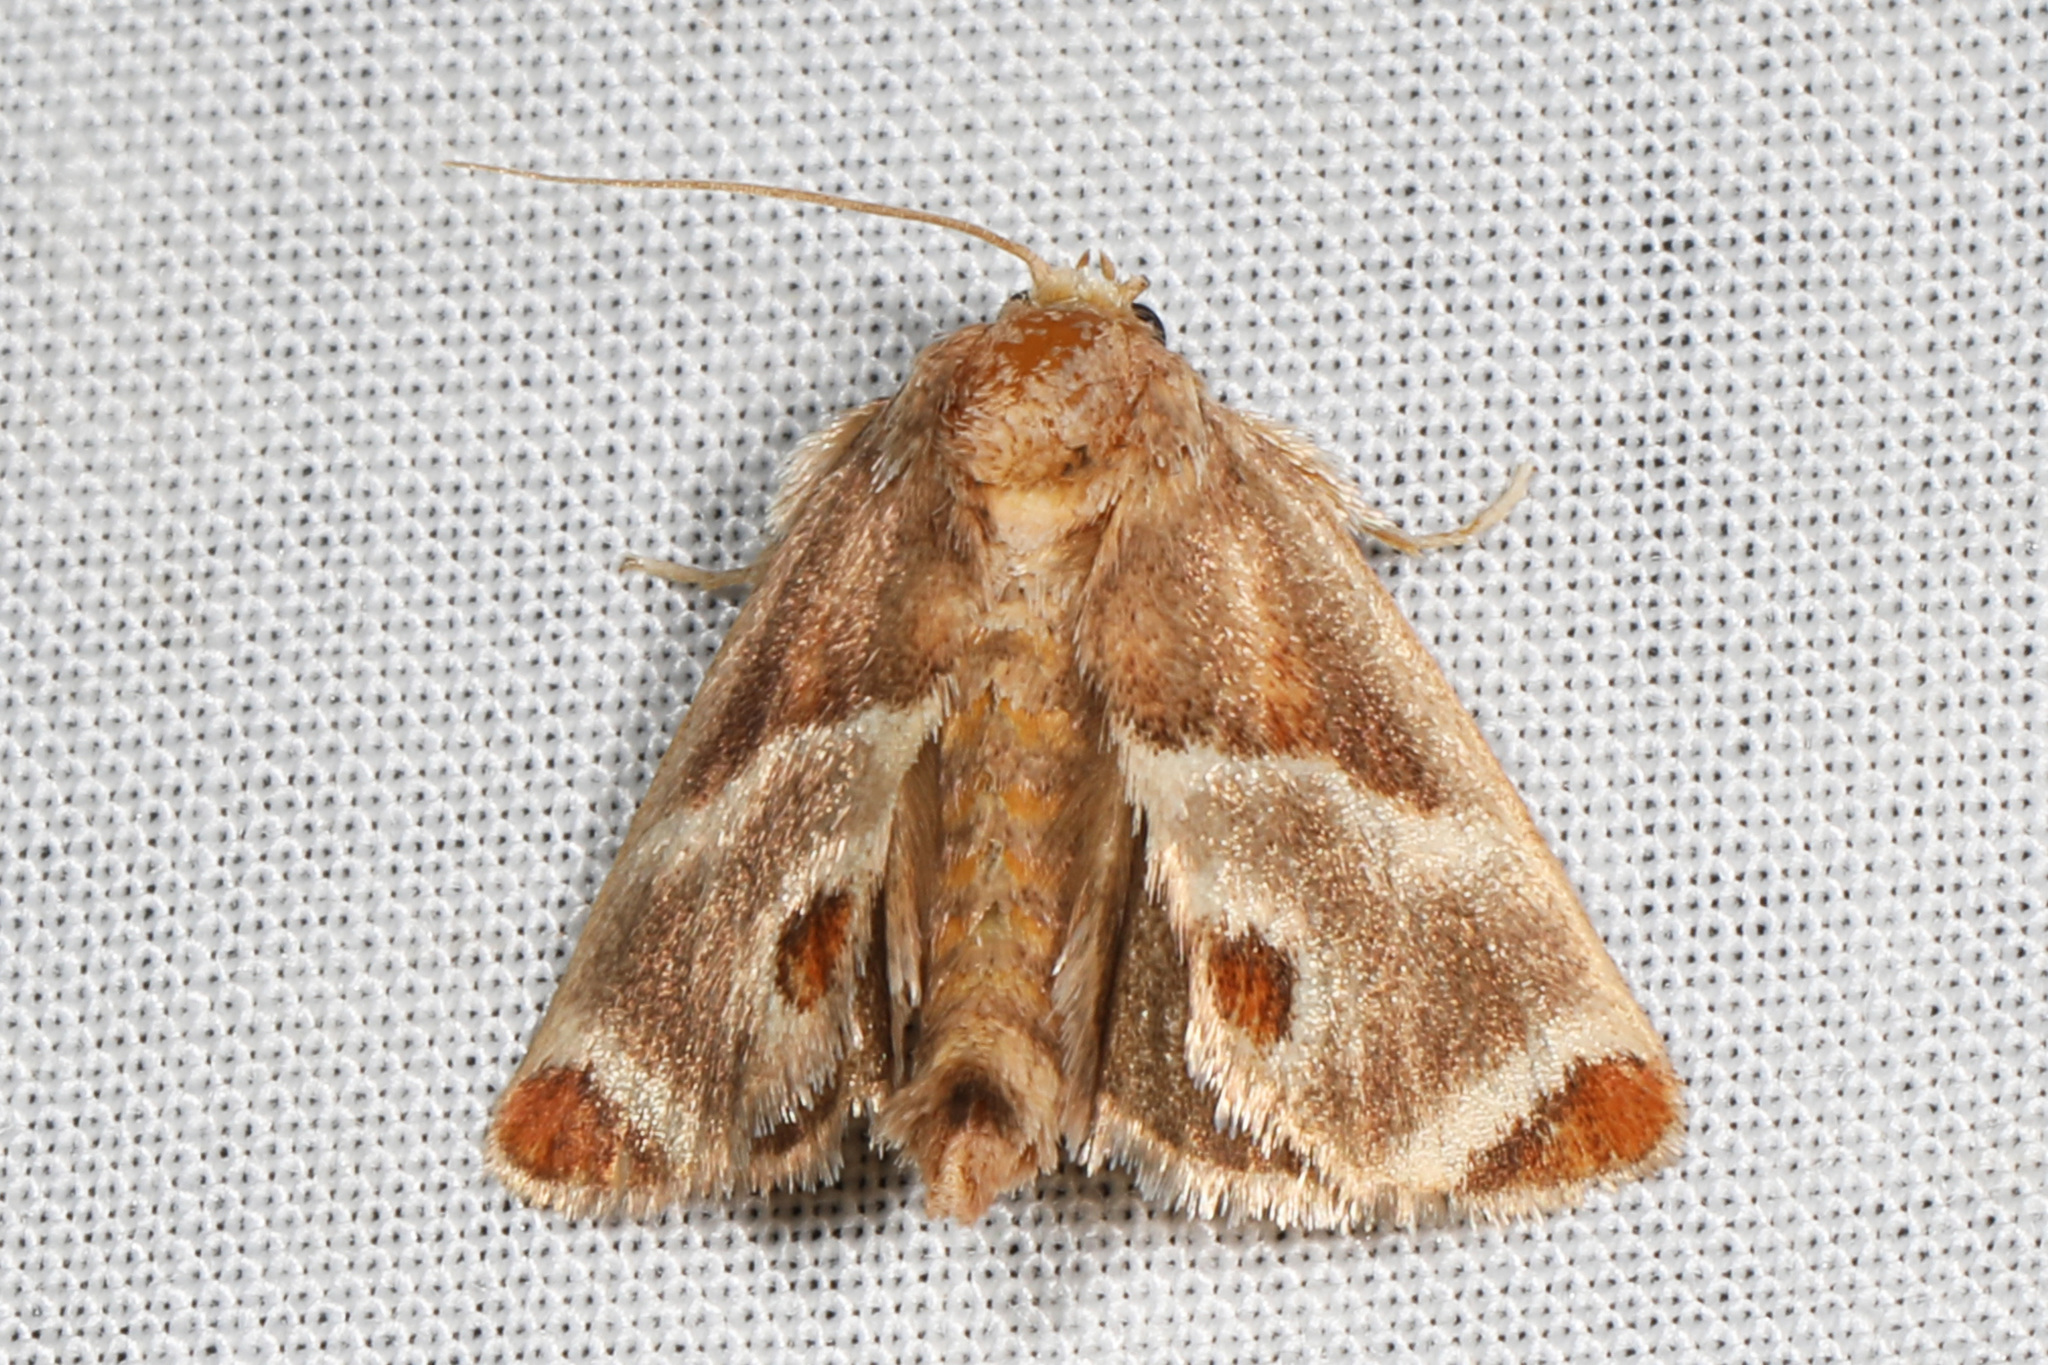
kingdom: Animalia
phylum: Arthropoda
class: Insecta
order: Lepidoptera
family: Limacodidae
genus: Apoda
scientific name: Apoda biguttata
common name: Shagreened slug moth
